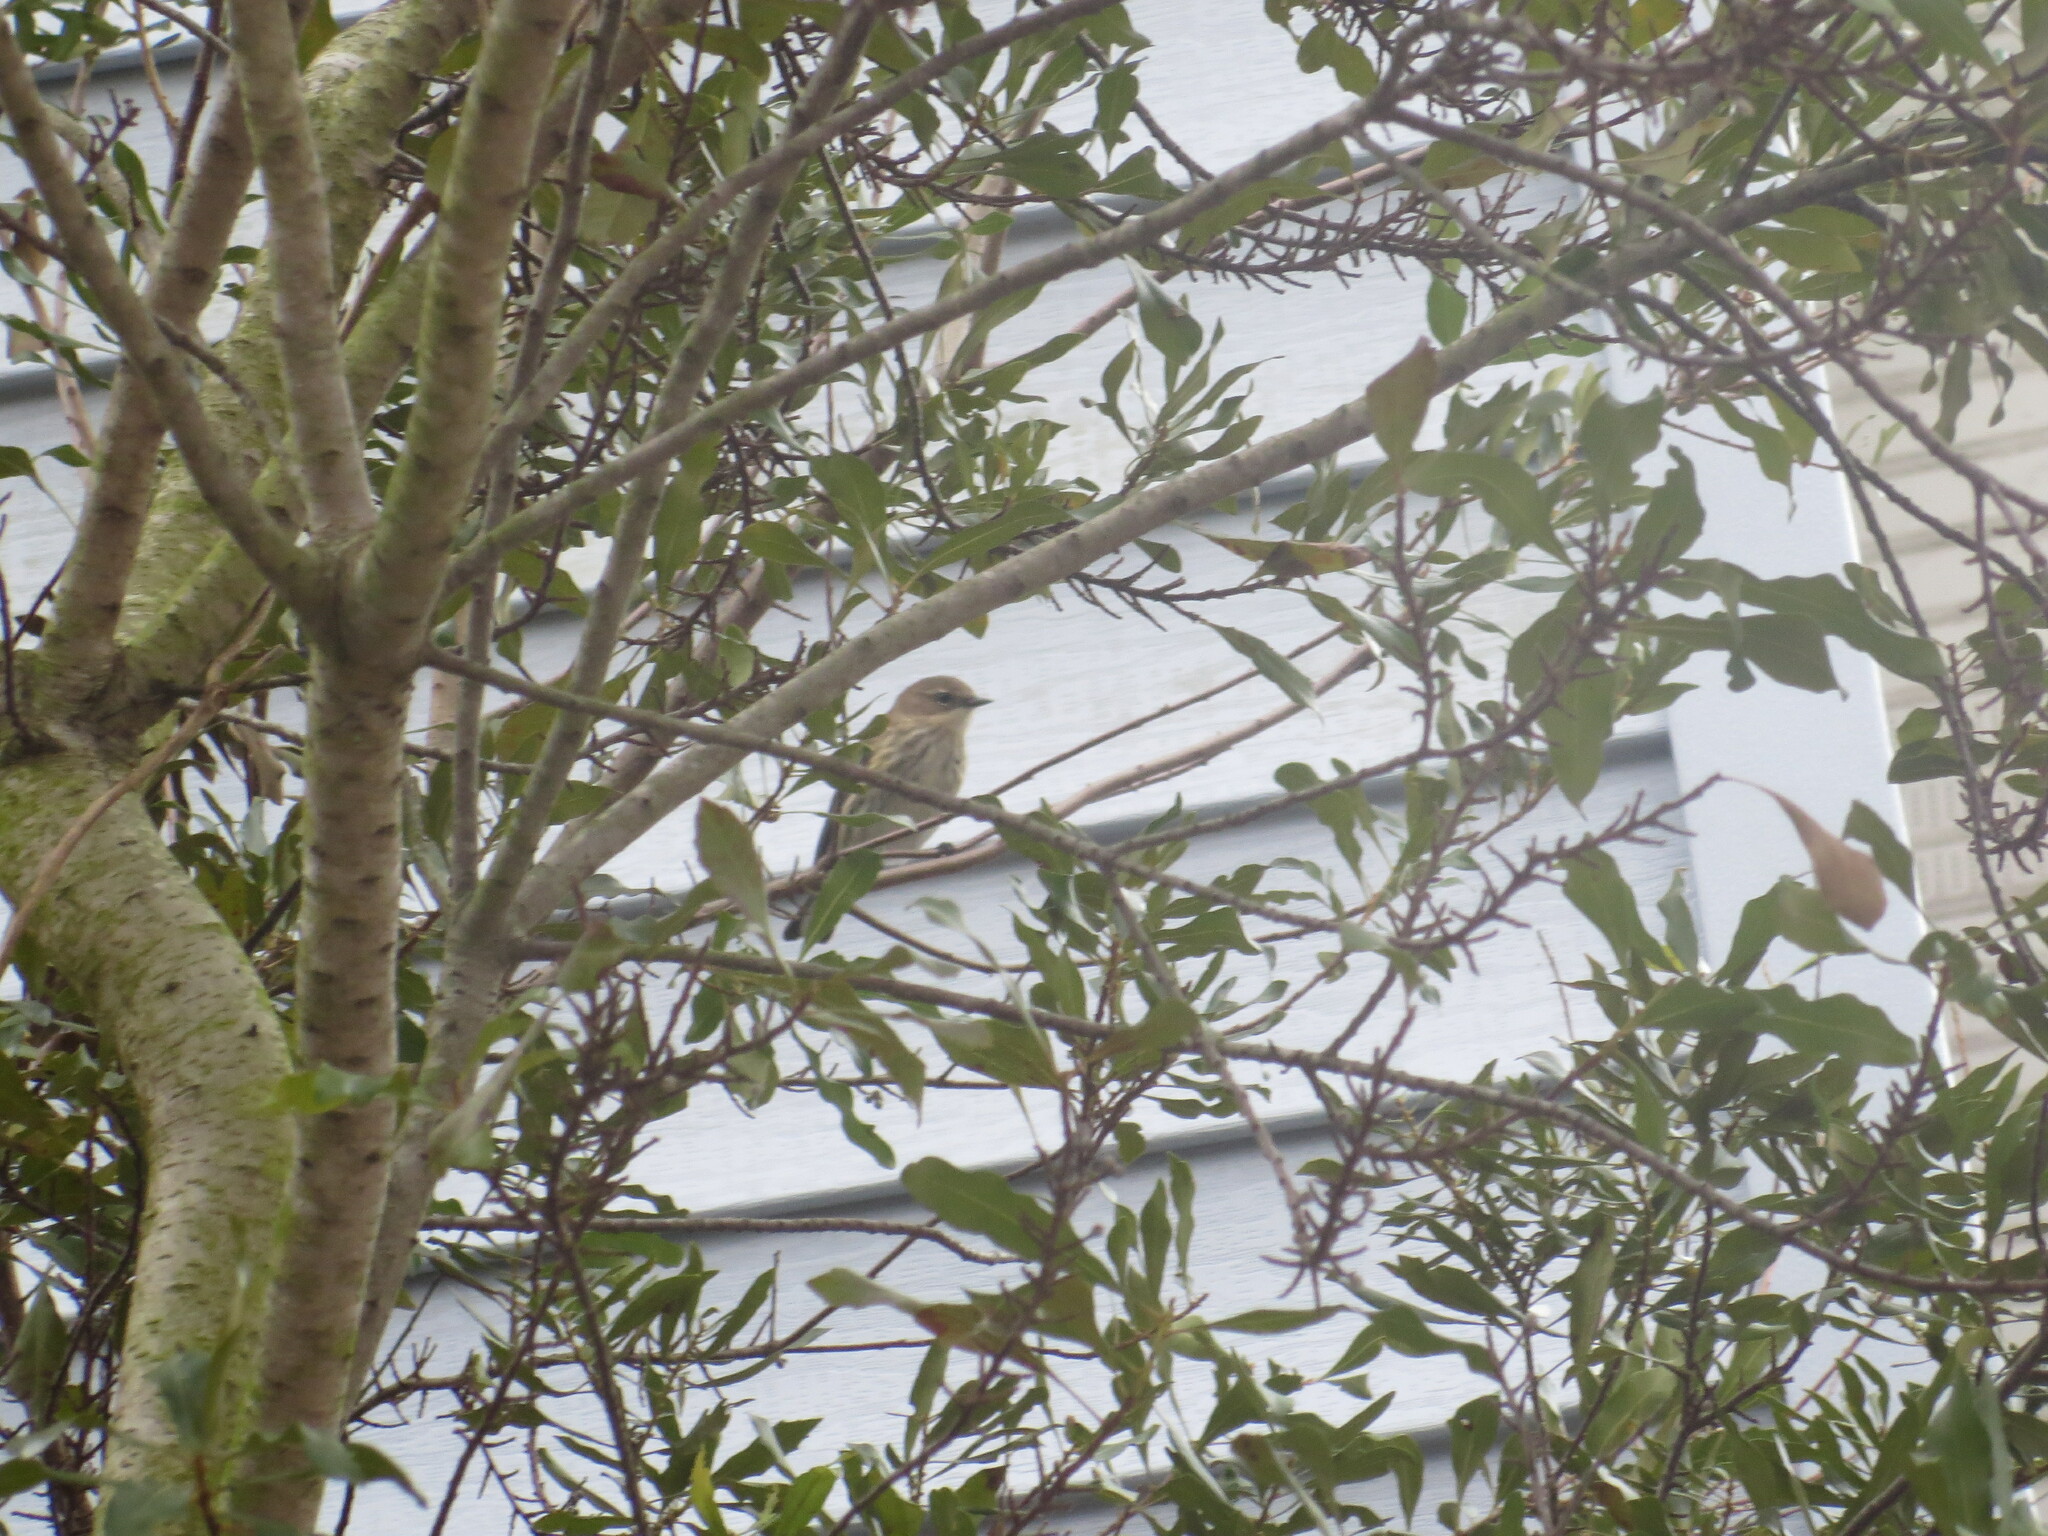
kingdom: Animalia
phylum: Chordata
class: Aves
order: Passeriformes
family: Parulidae
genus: Setophaga
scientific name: Setophaga coronata
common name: Myrtle warbler
